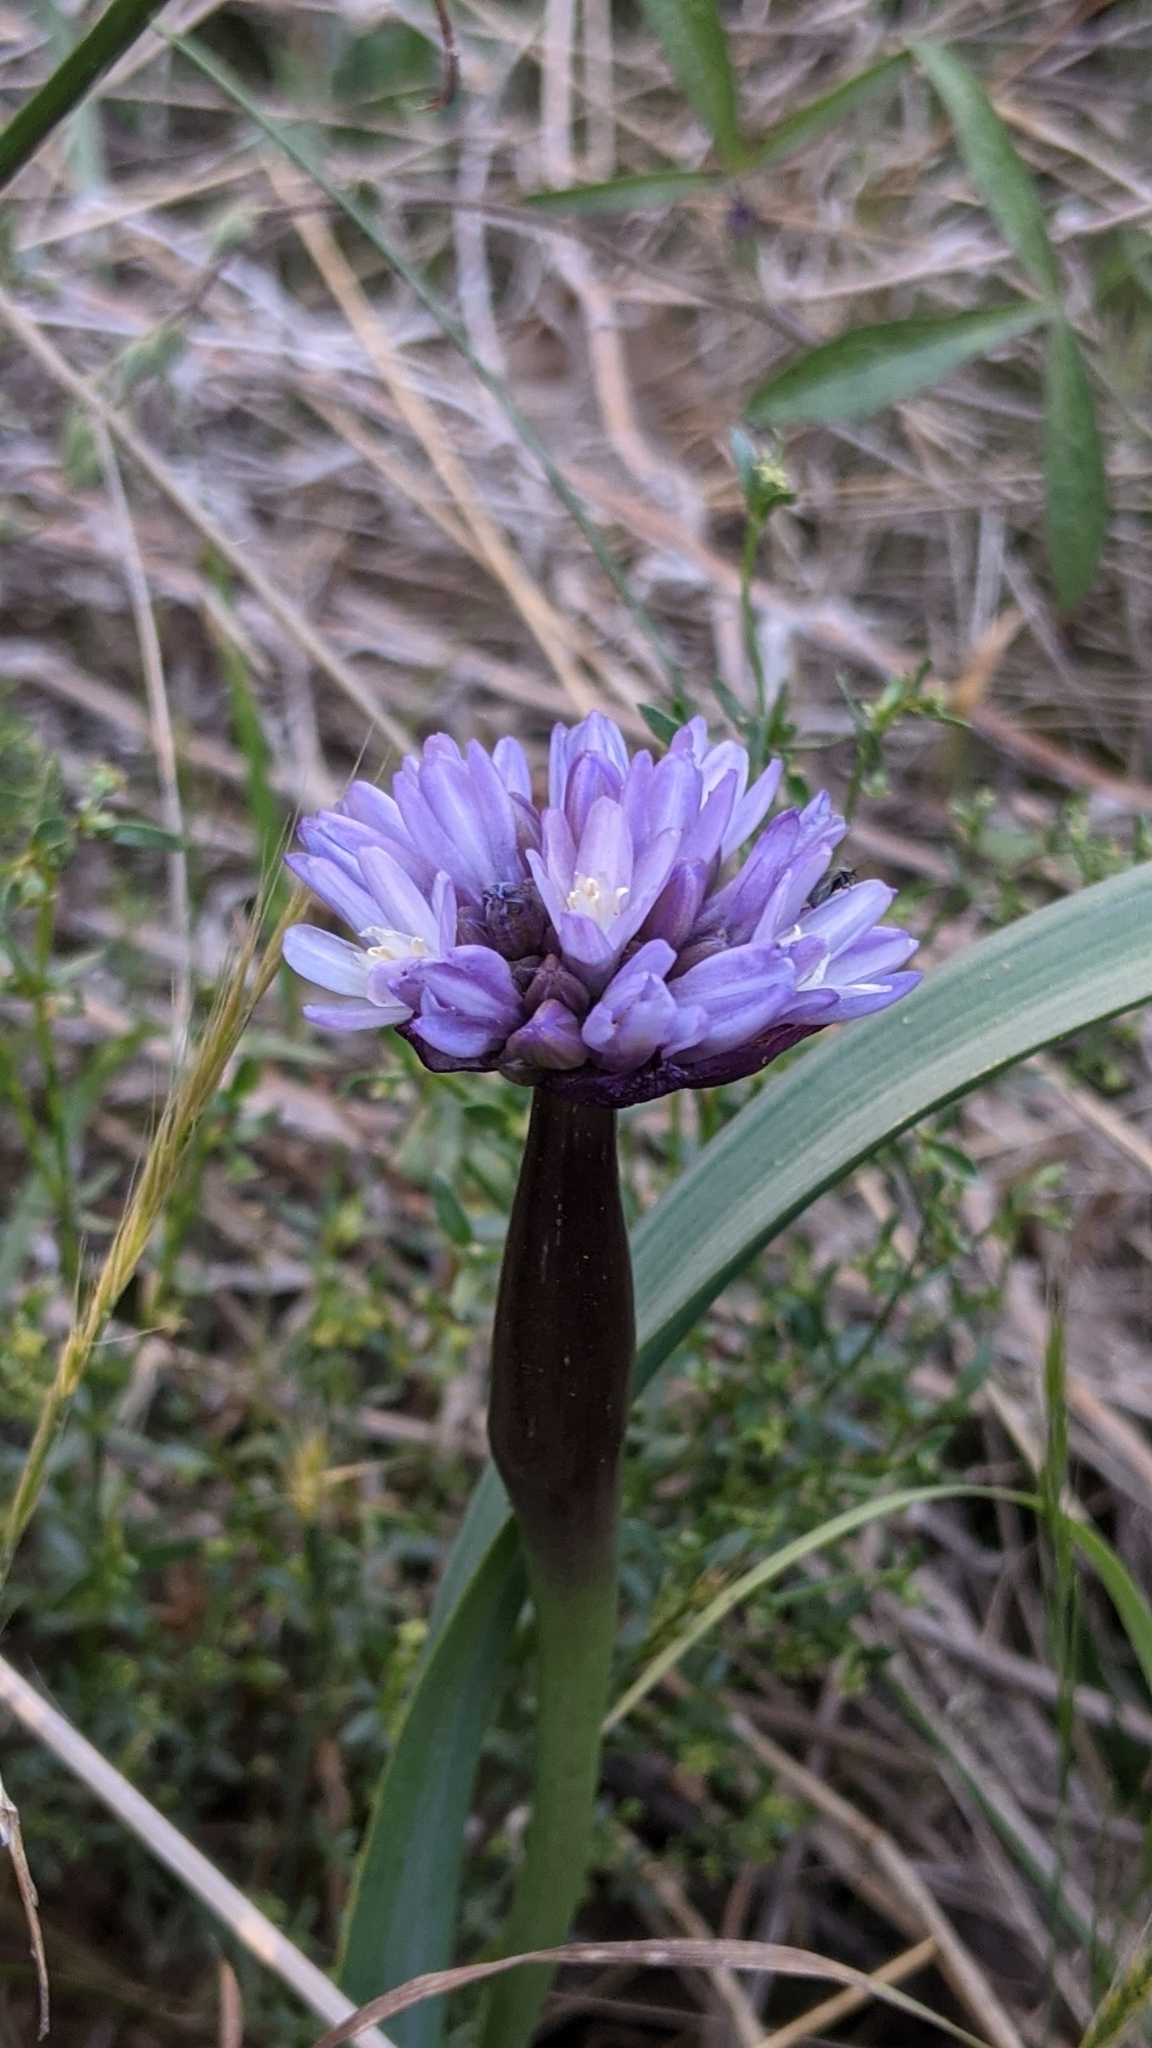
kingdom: Plantae
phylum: Tracheophyta
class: Liliopsida
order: Asparagales
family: Asparagaceae
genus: Dipterostemon
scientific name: Dipterostemon capitatus
